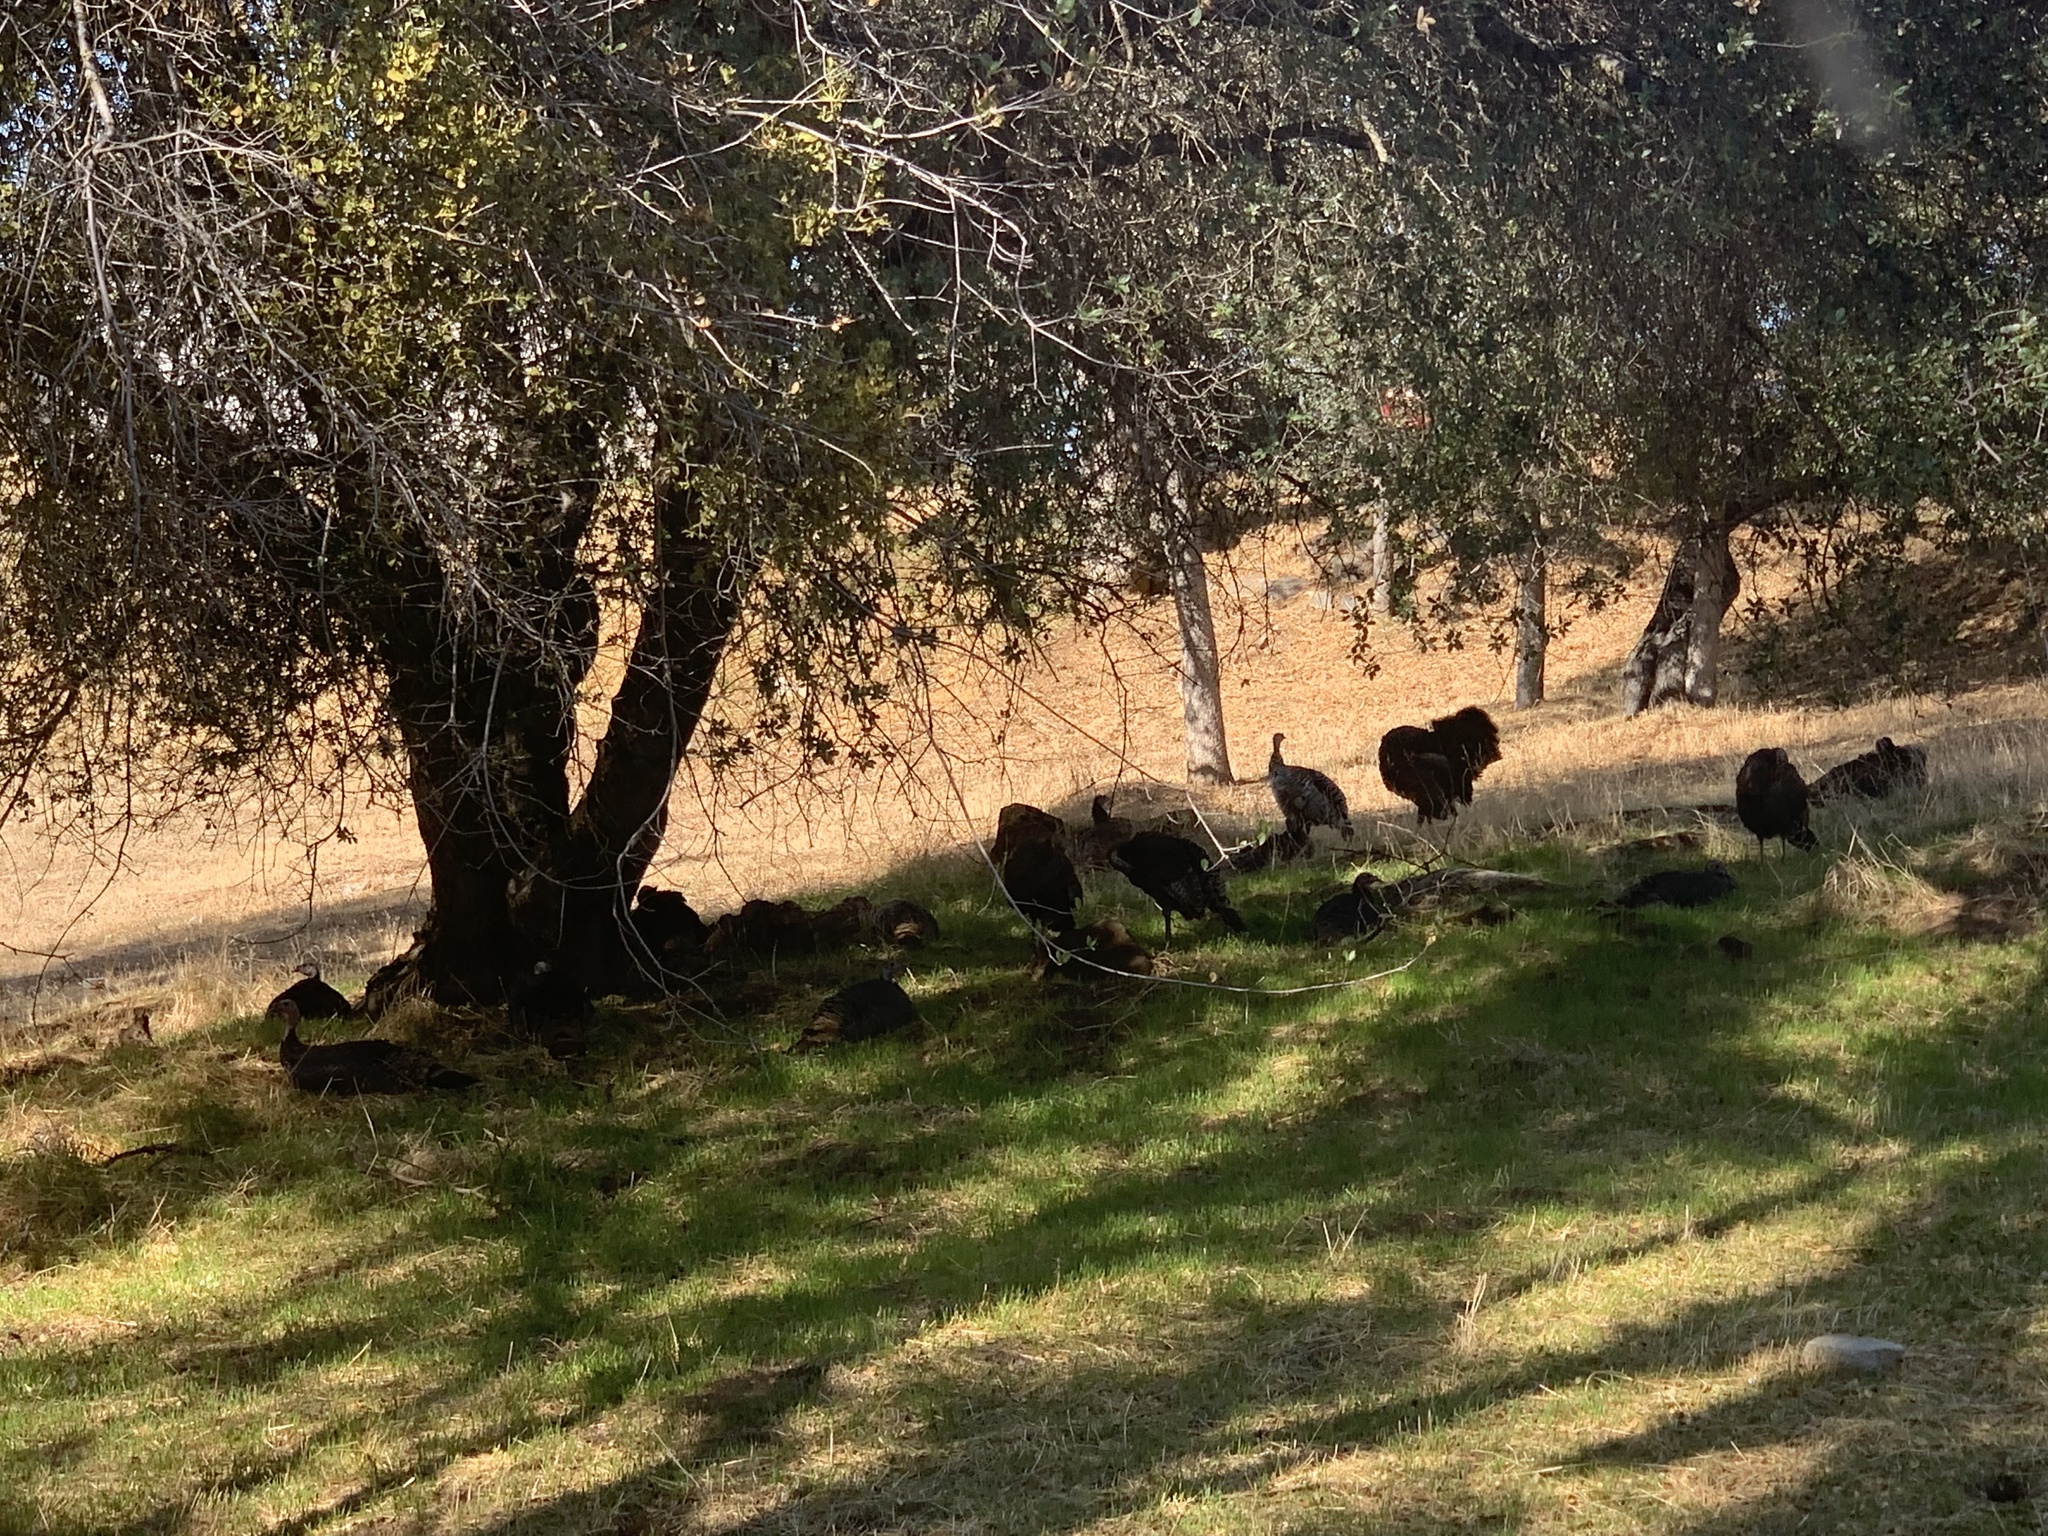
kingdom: Animalia
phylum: Chordata
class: Aves
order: Galliformes
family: Phasianidae
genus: Meleagris
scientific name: Meleagris gallopavo
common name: Wild turkey
